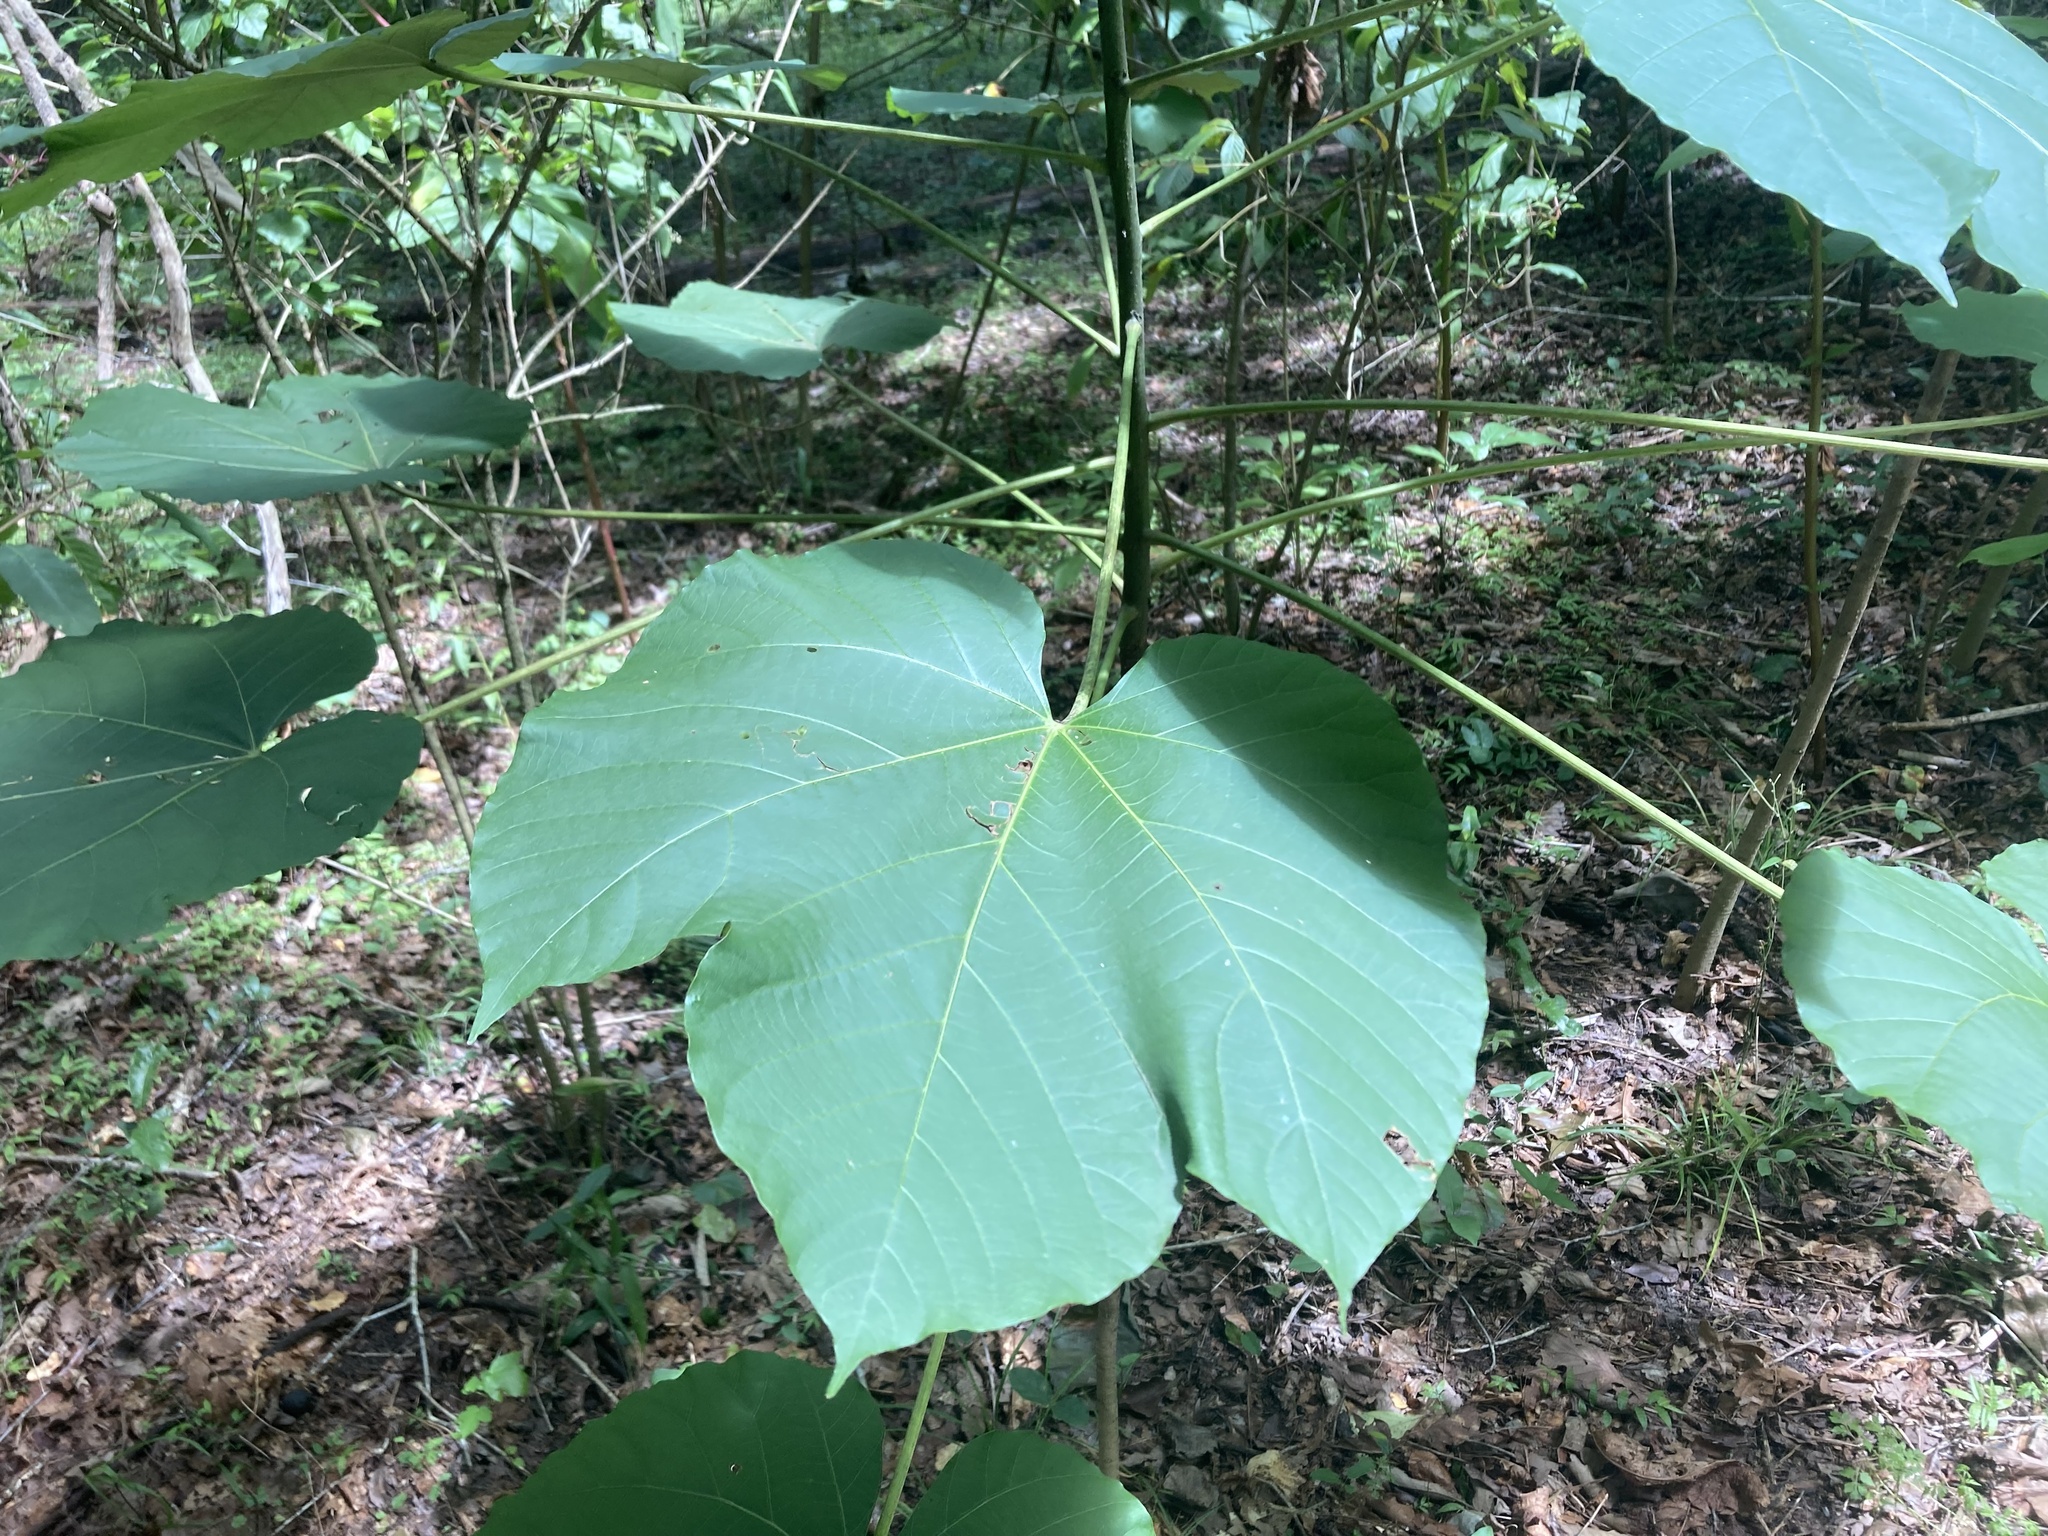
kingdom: Plantae
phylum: Tracheophyta
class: Magnoliopsida
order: Malpighiales
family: Euphorbiaceae
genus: Vernicia
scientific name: Vernicia fordii
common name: Tungoil tree
